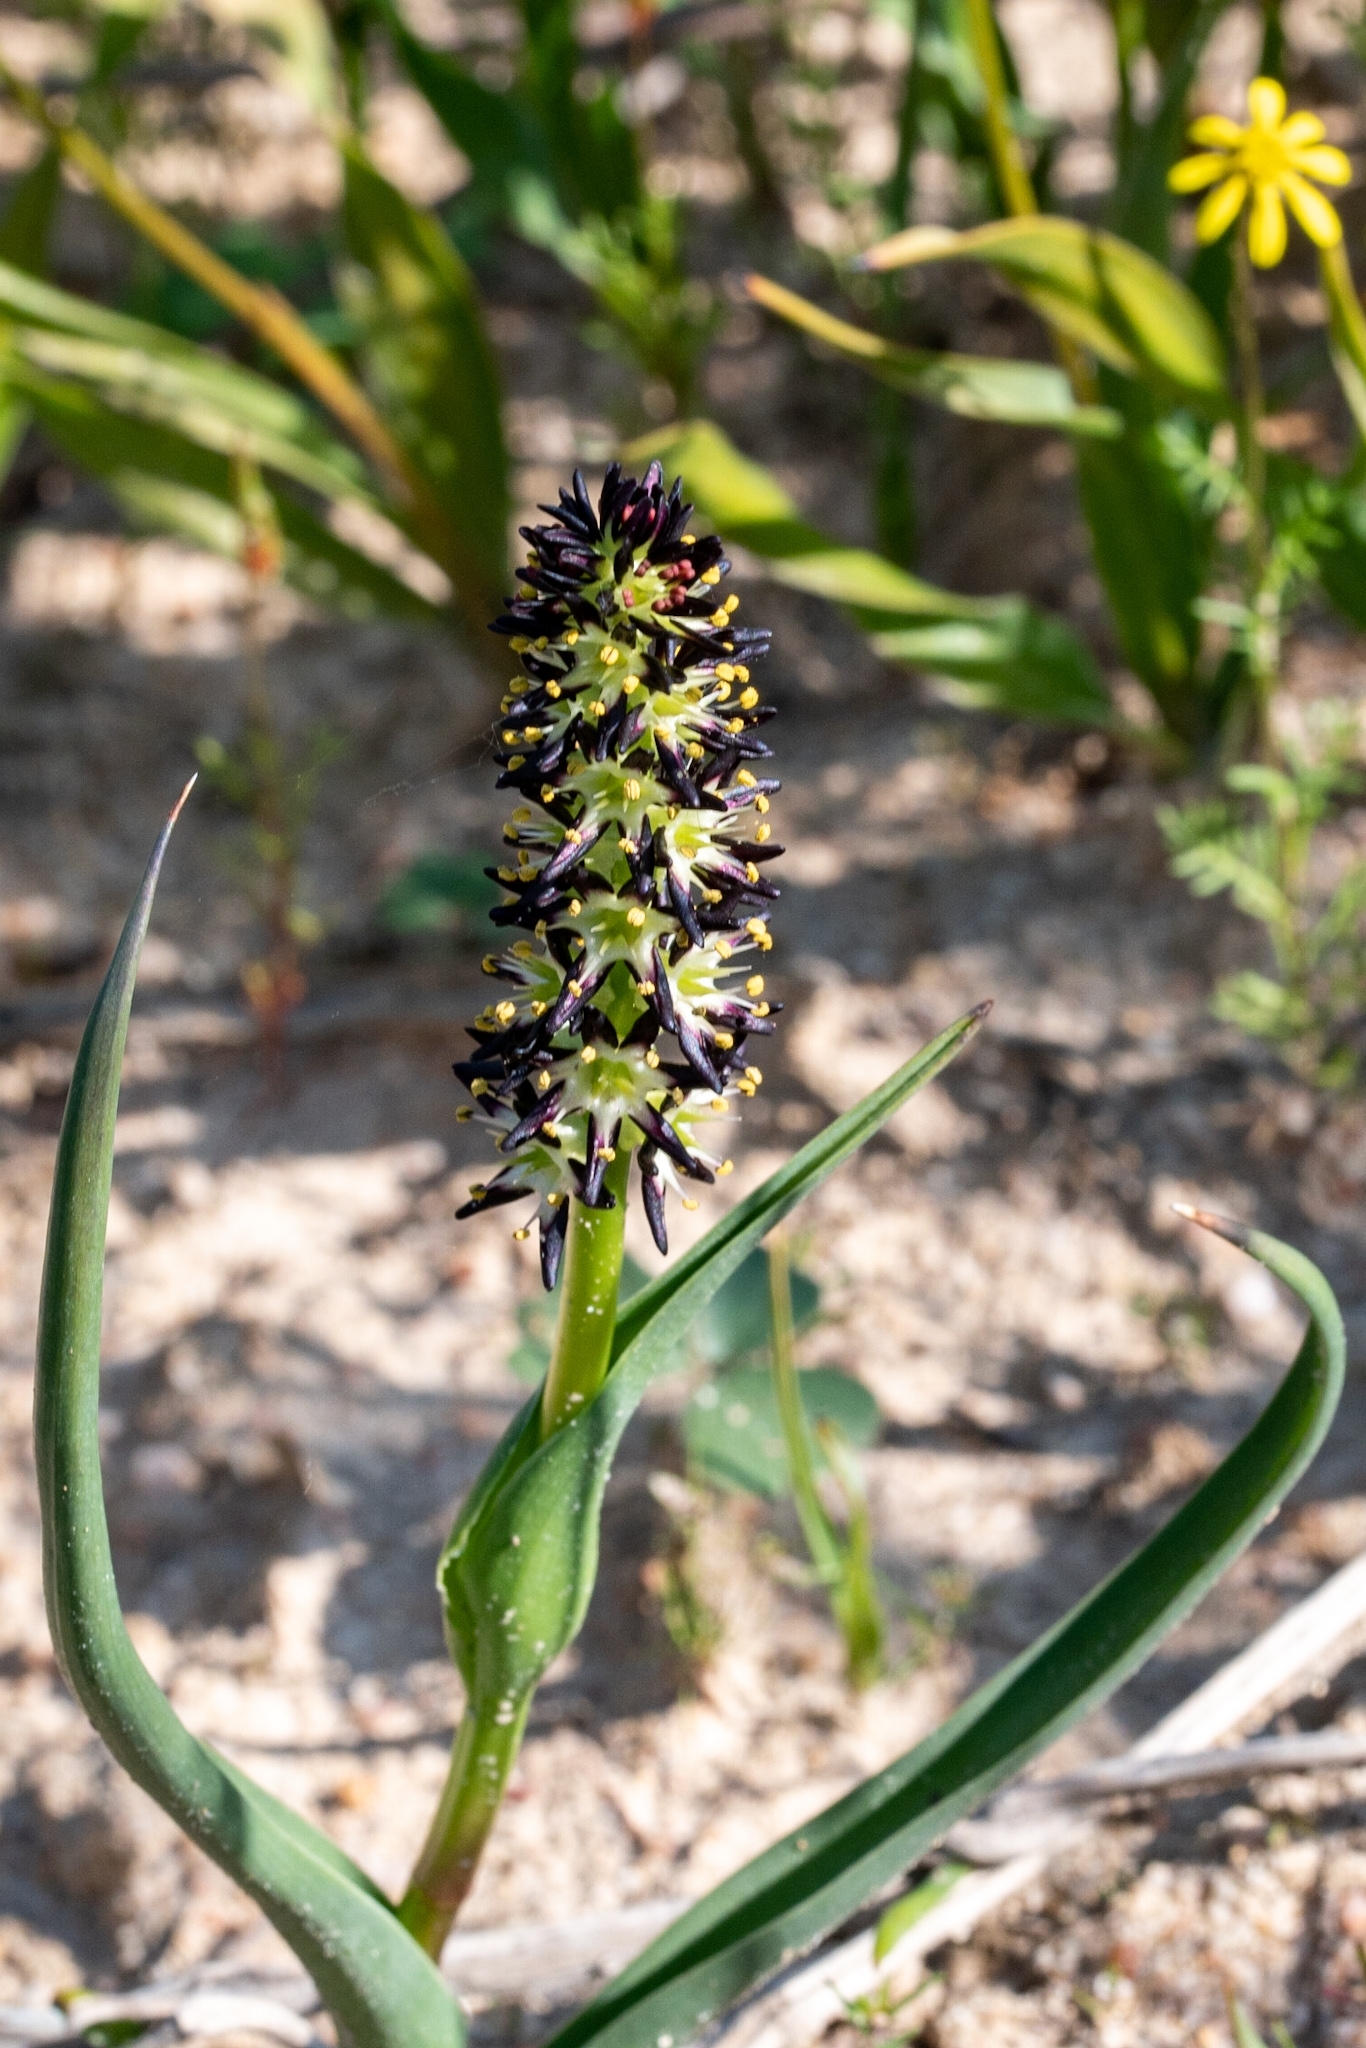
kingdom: Plantae
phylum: Tracheophyta
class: Liliopsida
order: Liliales
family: Colchicaceae
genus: Wurmbea
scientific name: Wurmbea spicata
